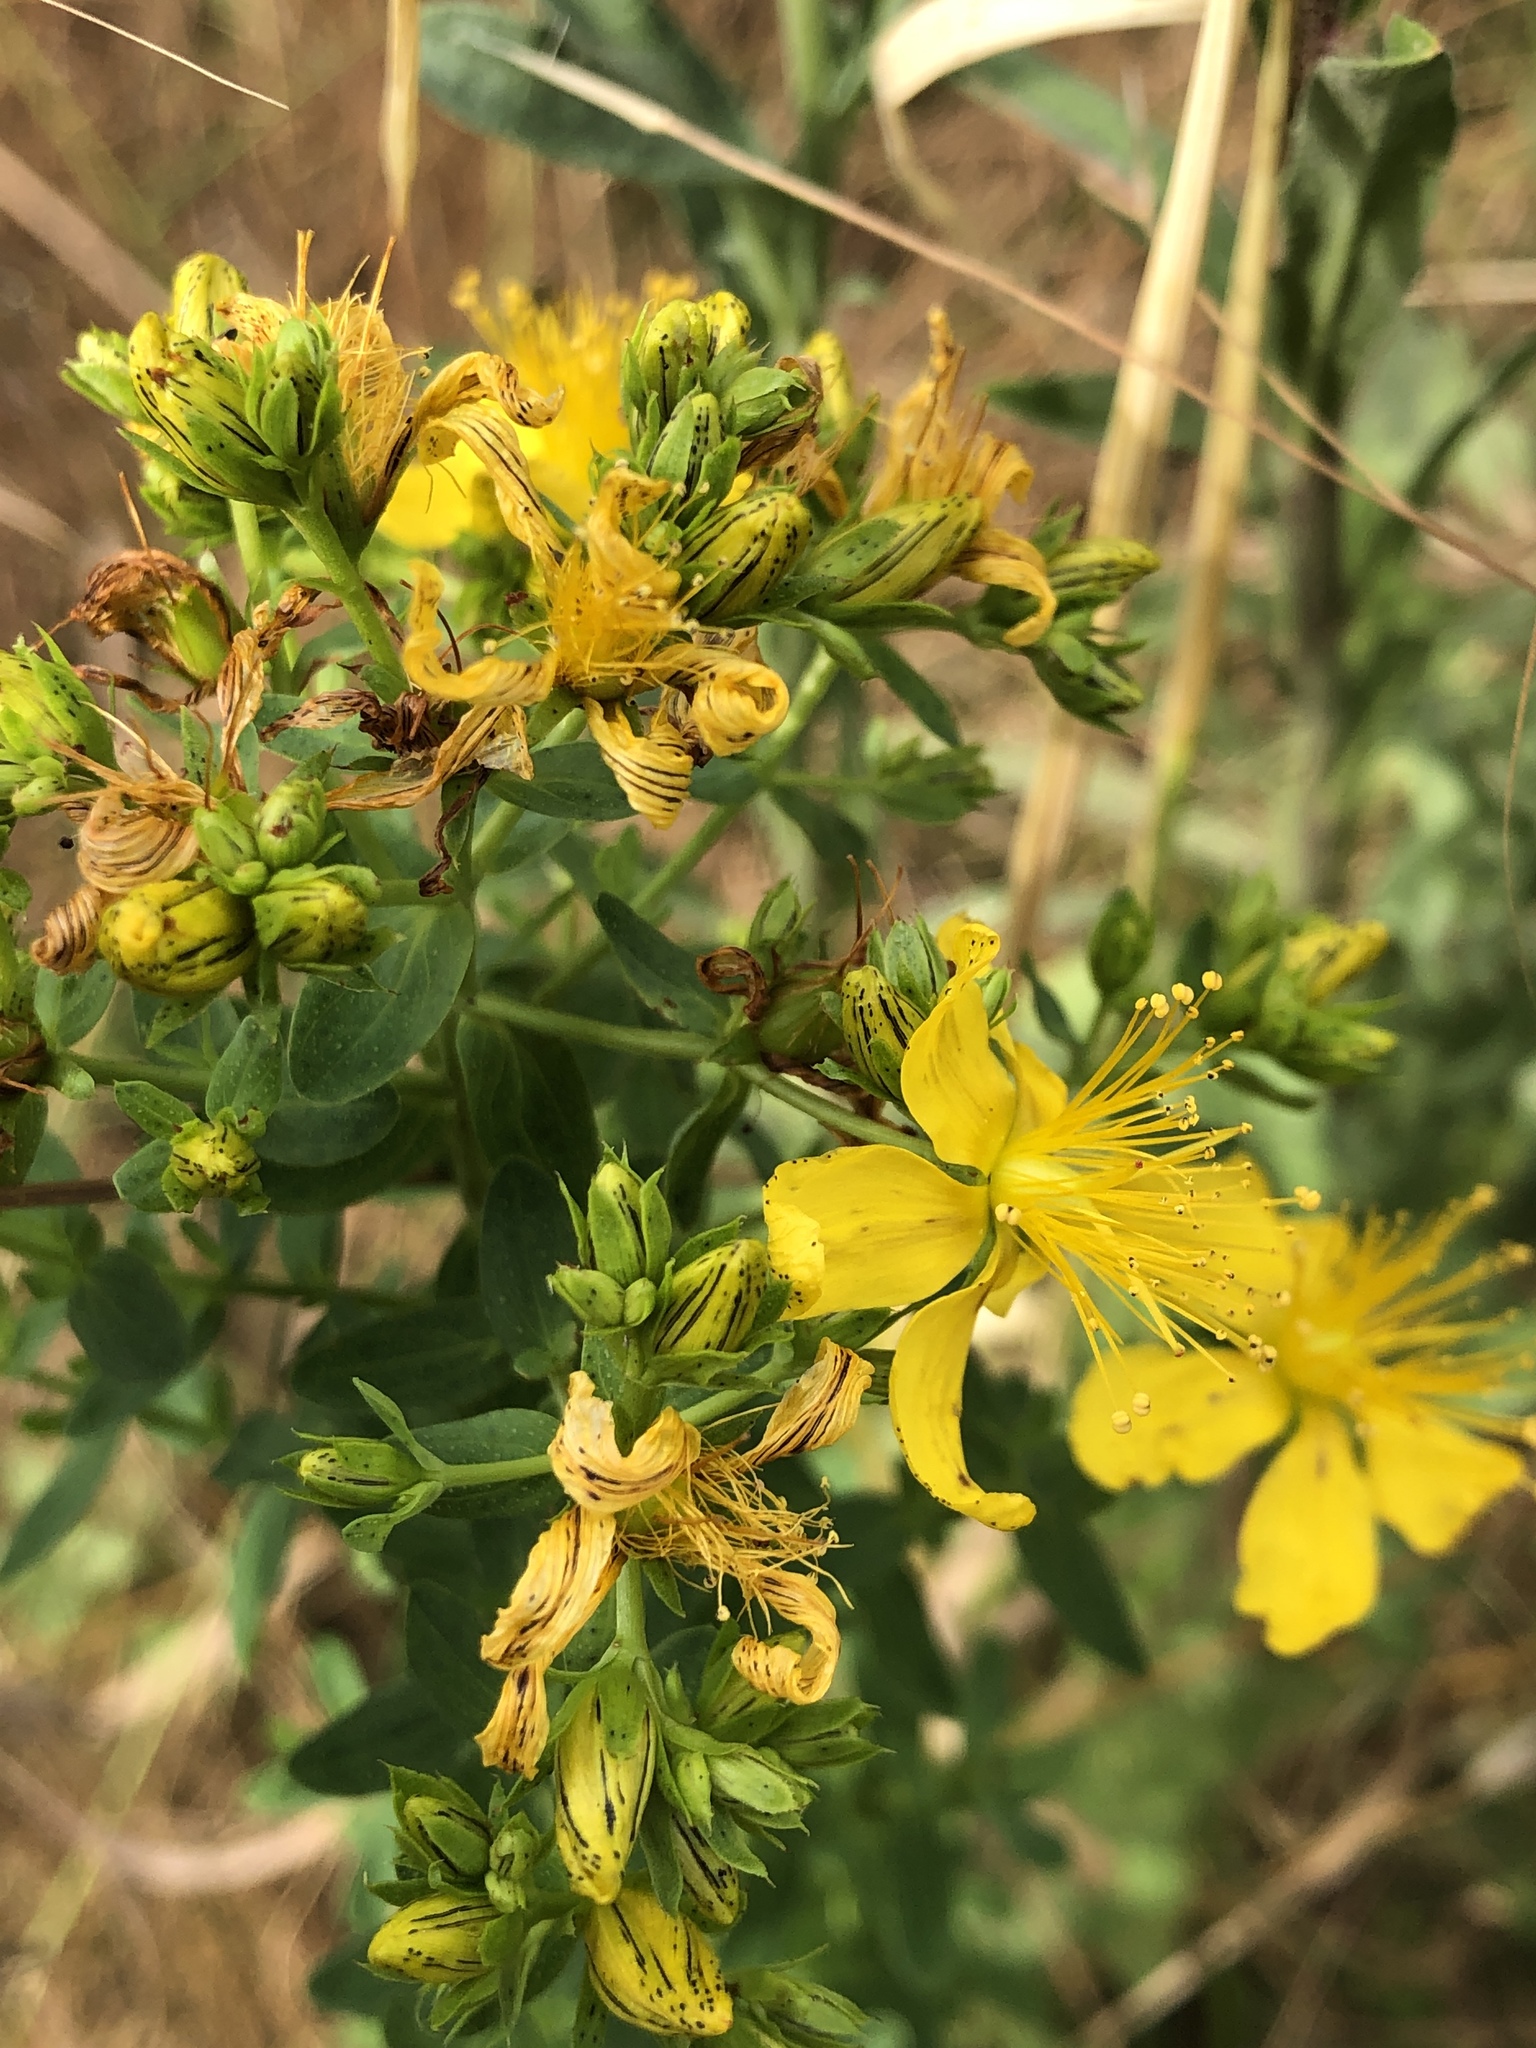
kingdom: Plantae
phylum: Tracheophyta
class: Magnoliopsida
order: Malpighiales
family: Hypericaceae
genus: Hypericum
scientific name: Hypericum perforatum
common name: Common st. johnswort
